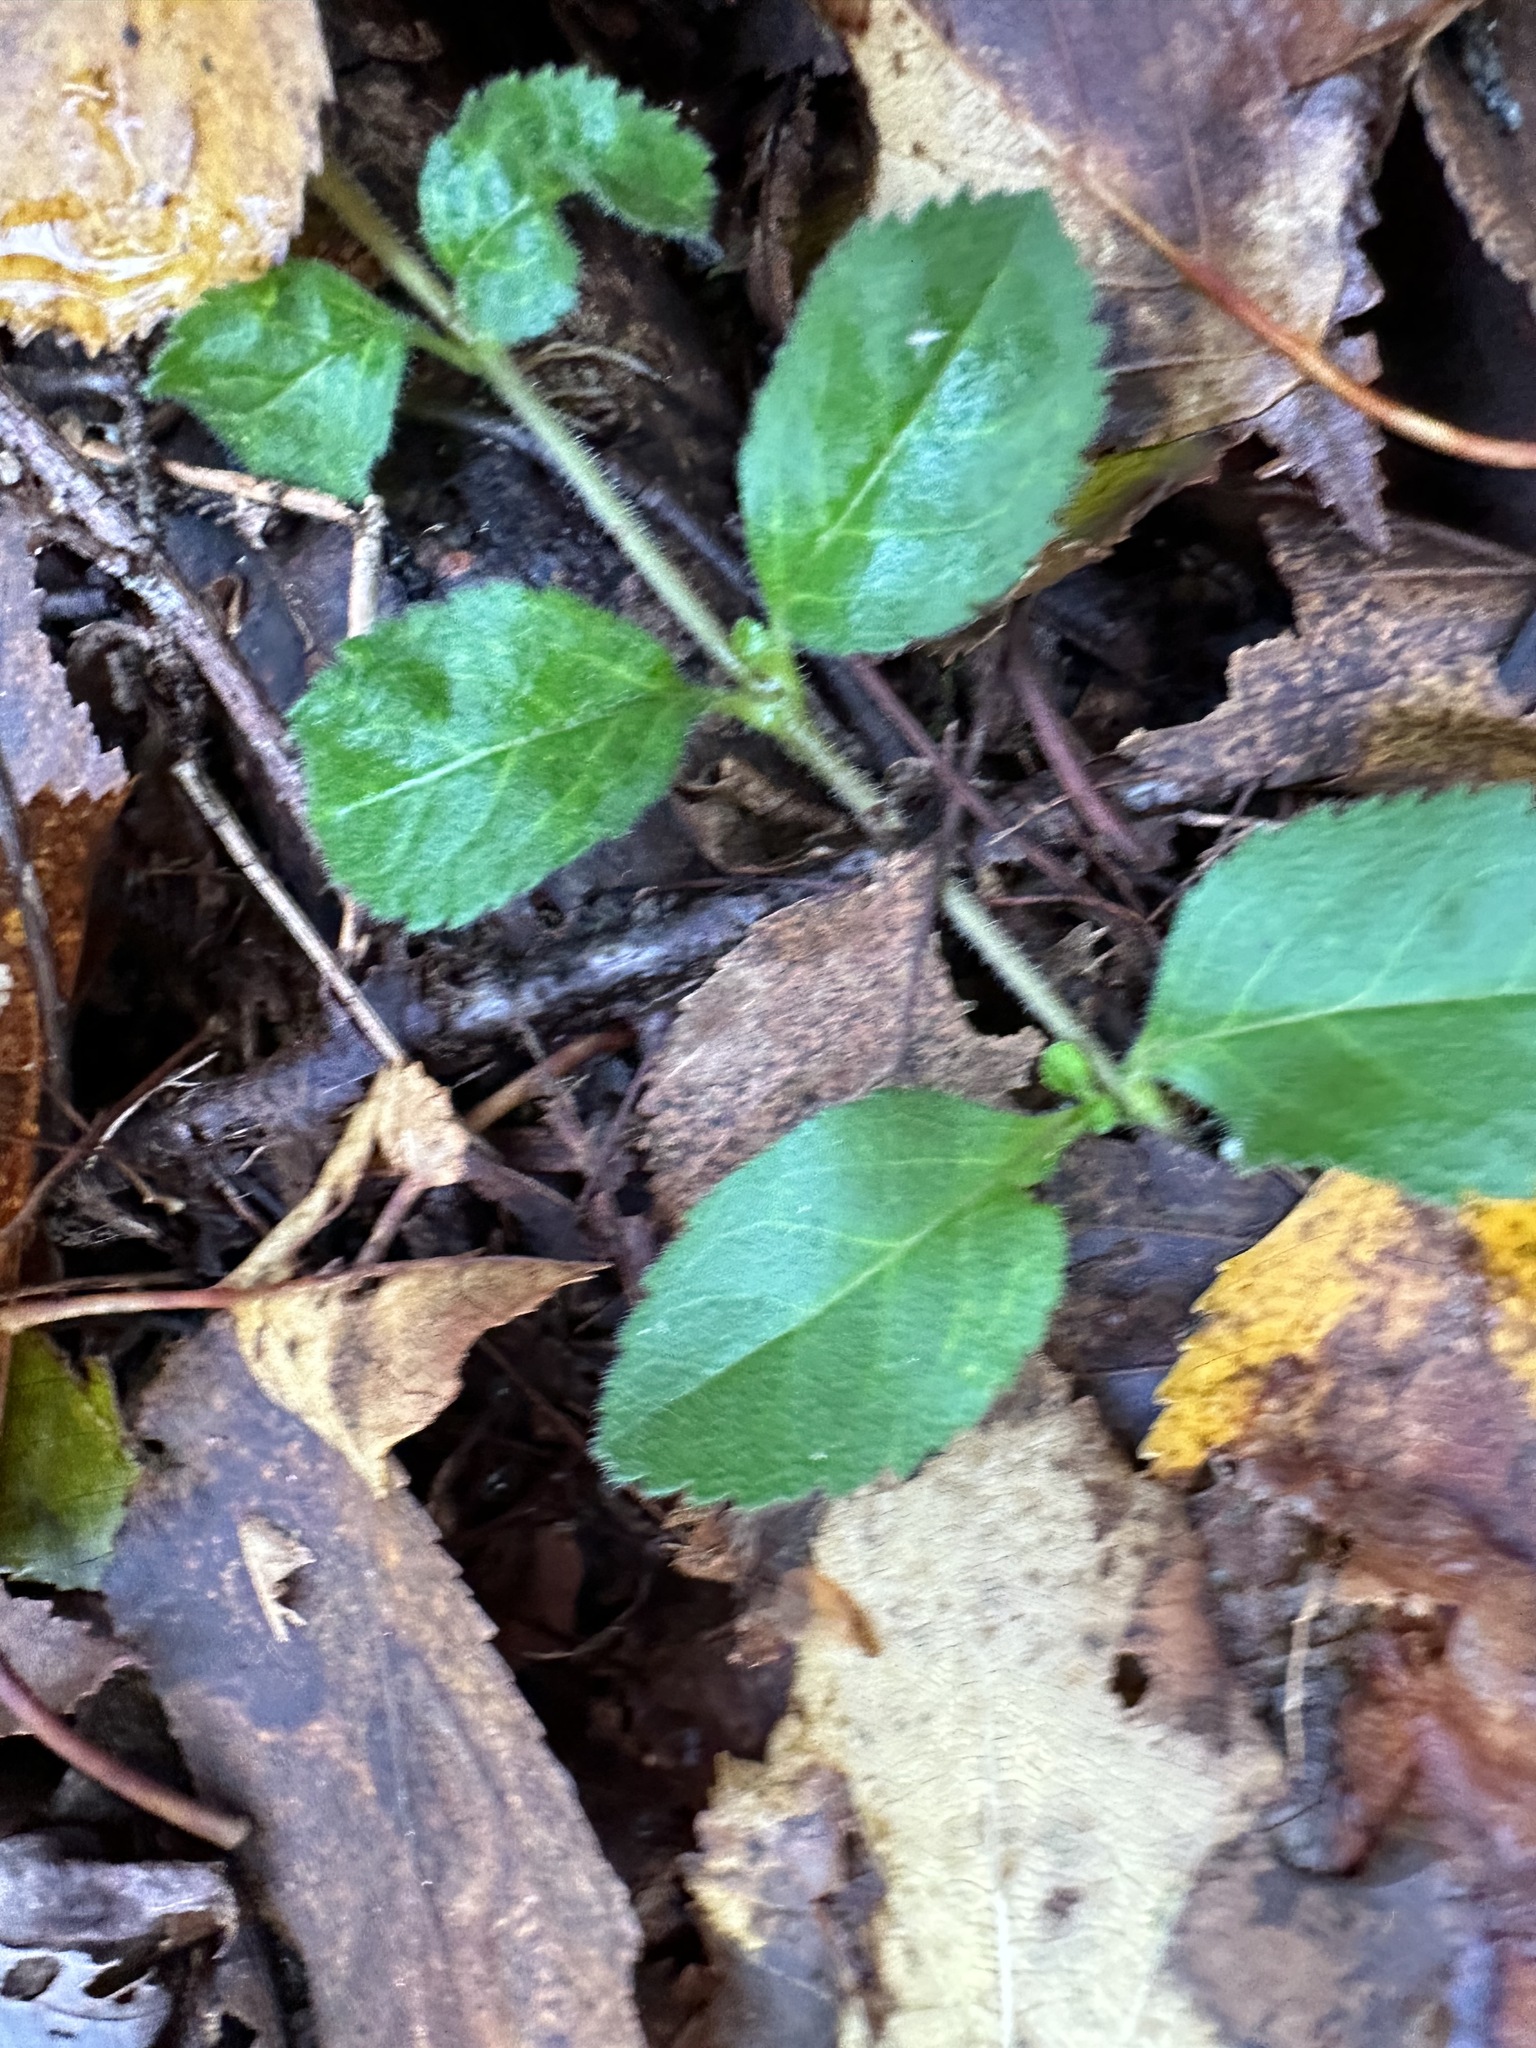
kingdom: Plantae
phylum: Tracheophyta
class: Magnoliopsida
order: Lamiales
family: Plantaginaceae
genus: Veronica
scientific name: Veronica officinalis
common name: Common speedwell
